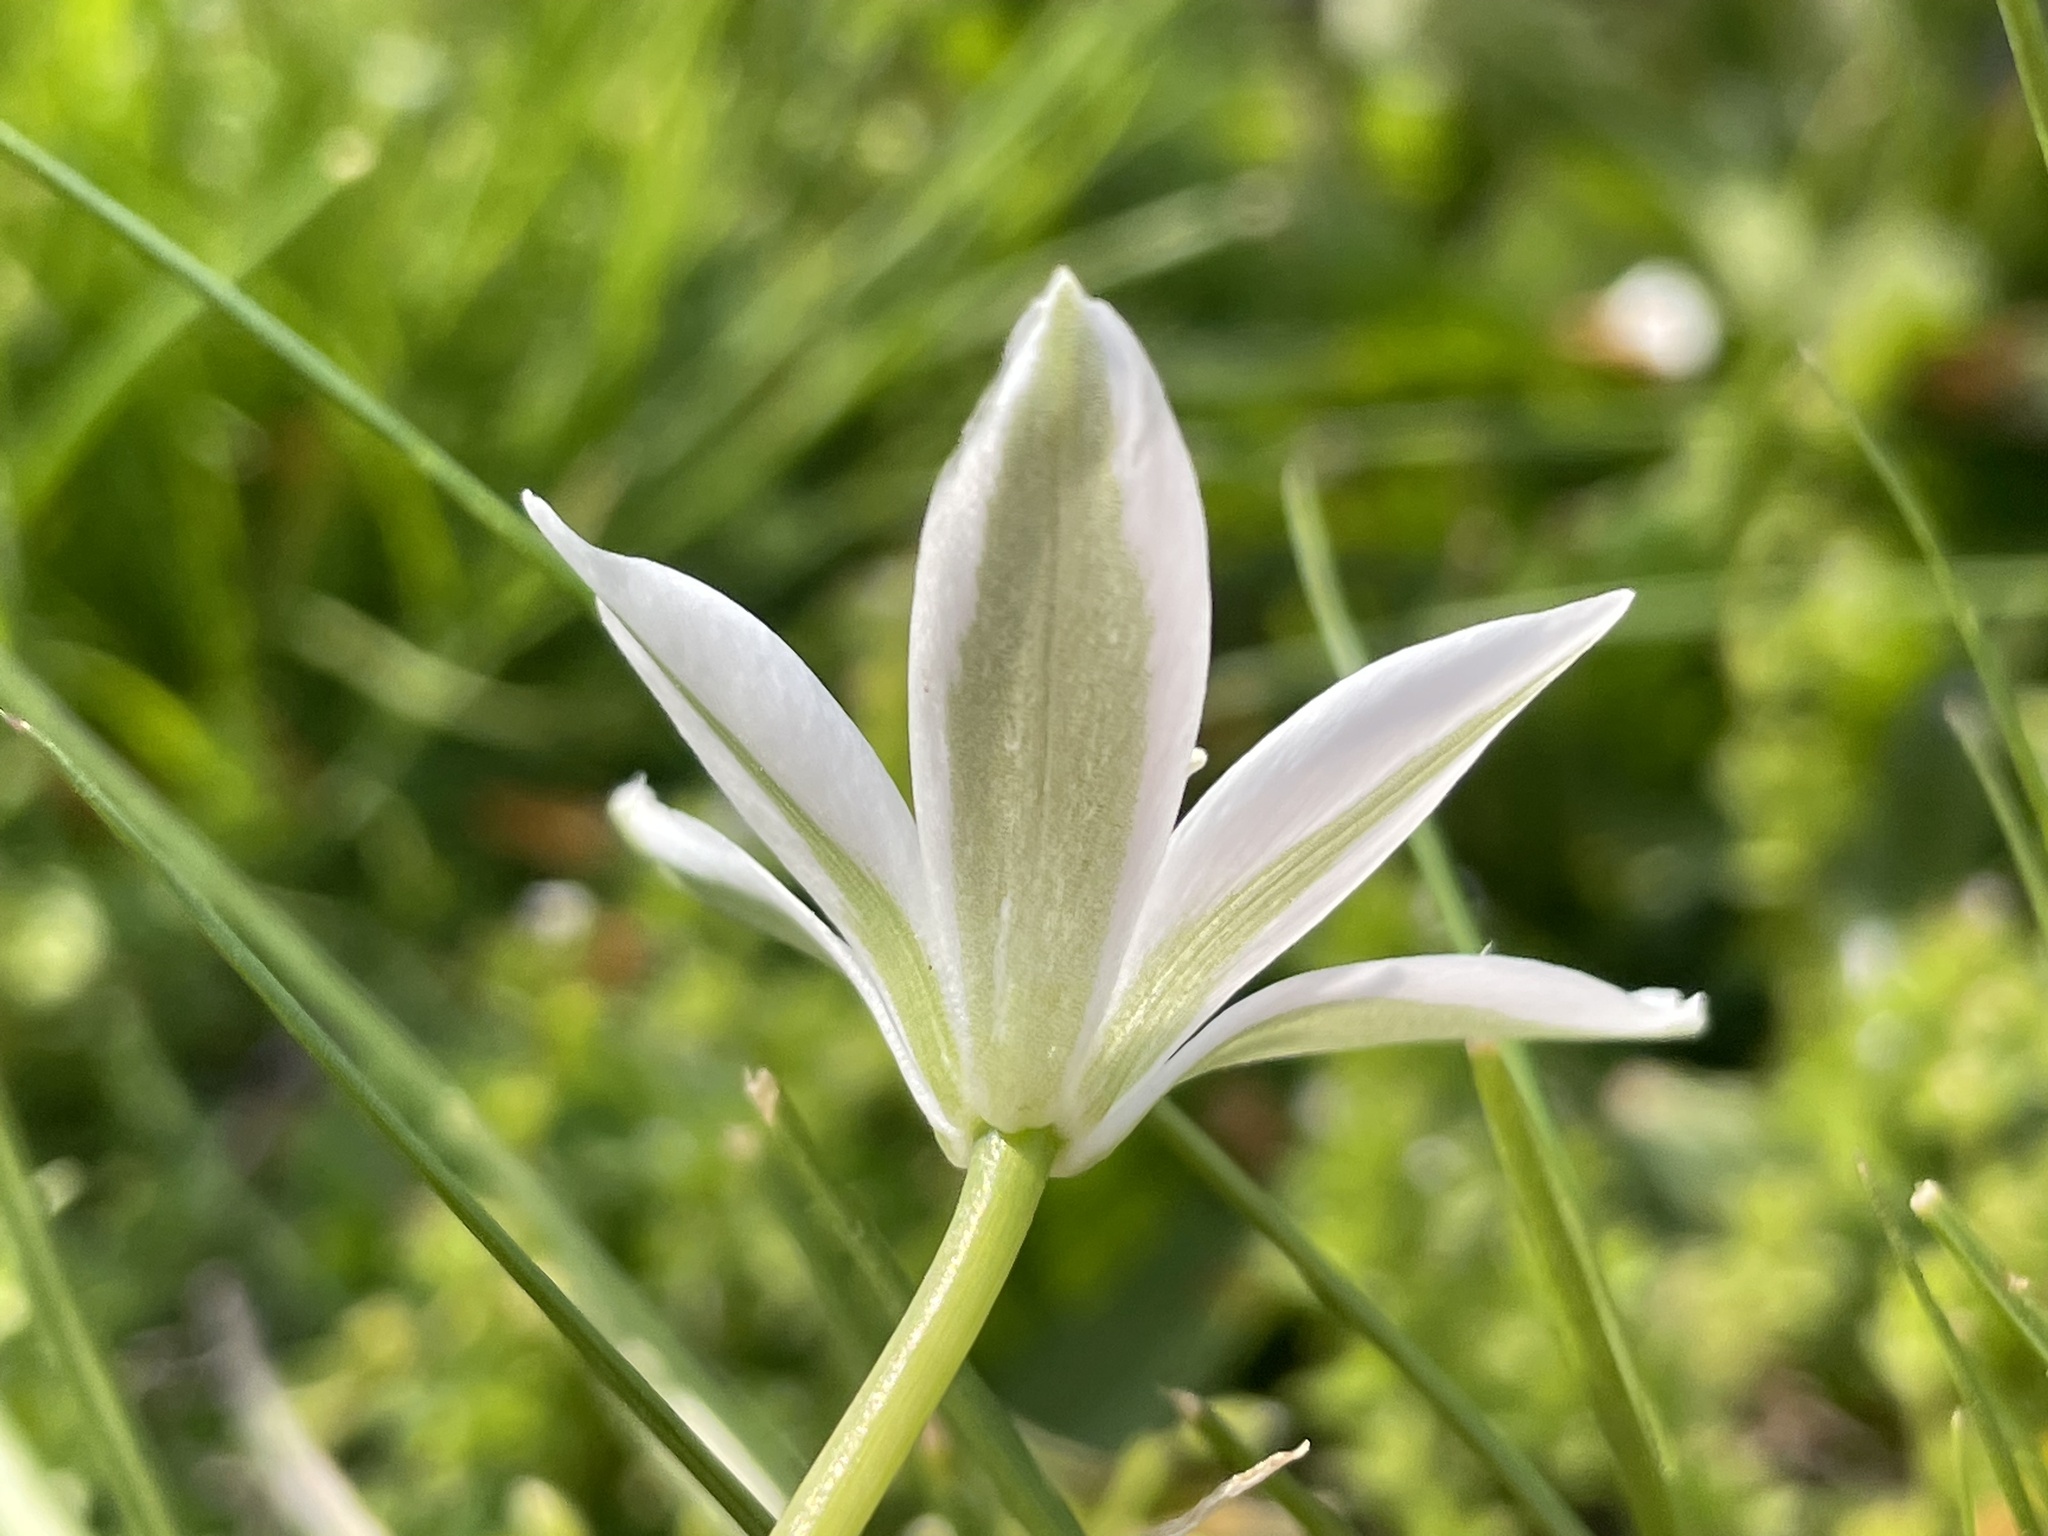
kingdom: Plantae
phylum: Tracheophyta
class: Liliopsida
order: Asparagales
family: Asparagaceae
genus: Ornithogalum
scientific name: Ornithogalum umbellatum
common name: Garden star-of-bethlehem
